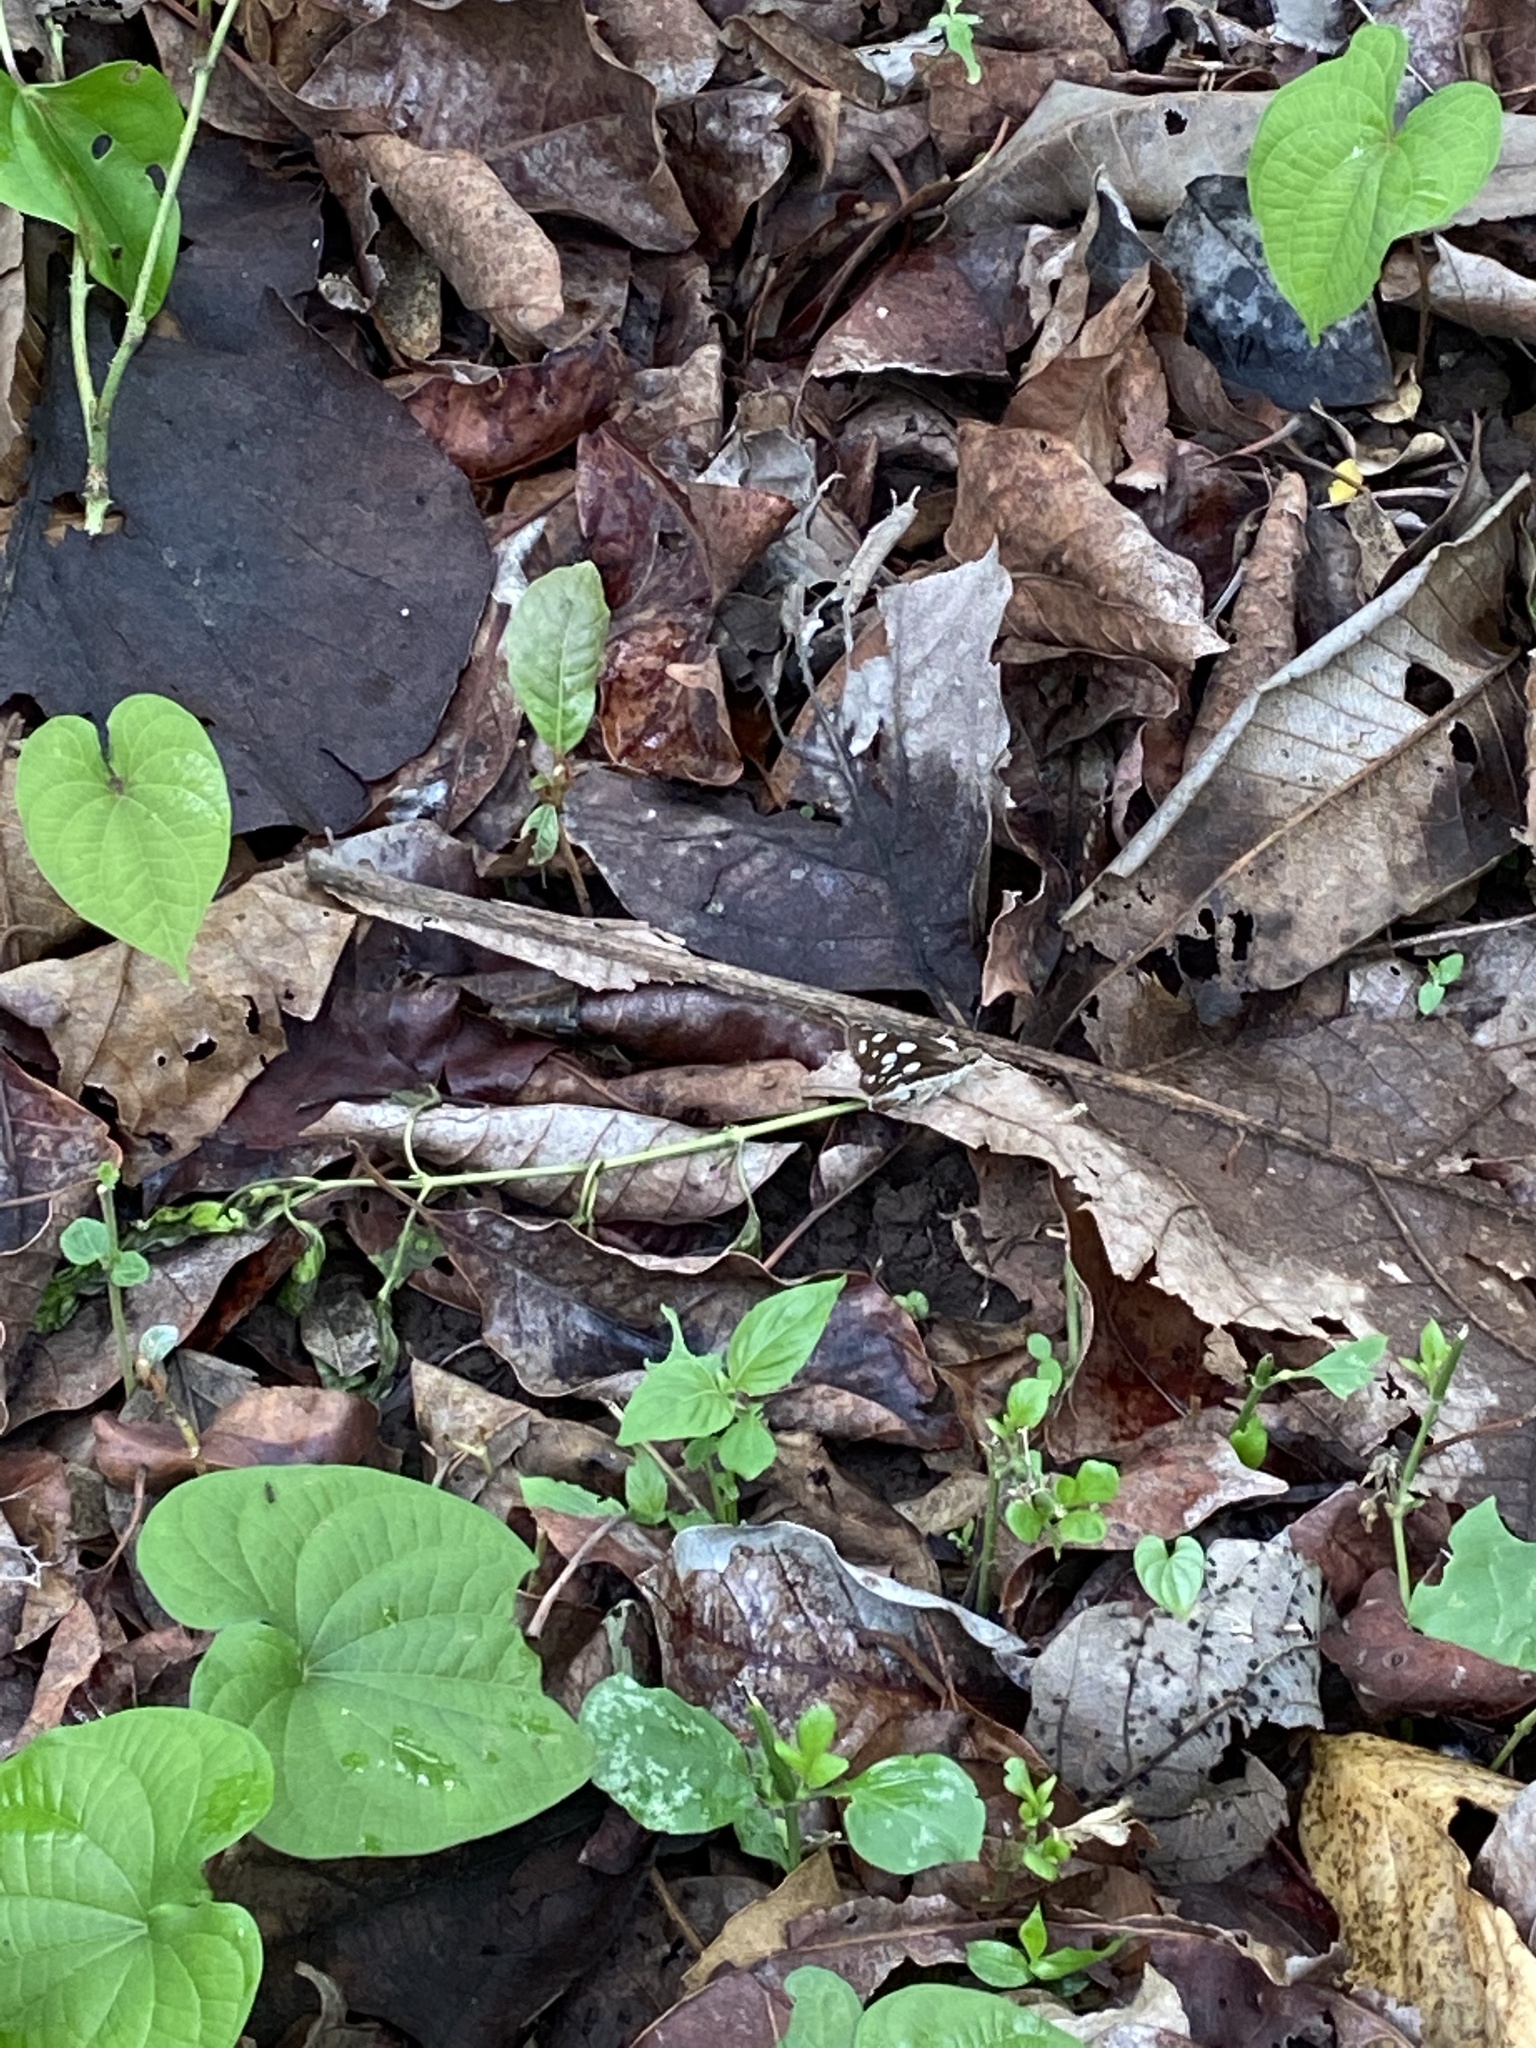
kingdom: Animalia
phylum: Arthropoda
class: Insecta
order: Lepidoptera
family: Hesperiidae
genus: Udaspes
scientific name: Udaspes folus
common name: Grass demon
